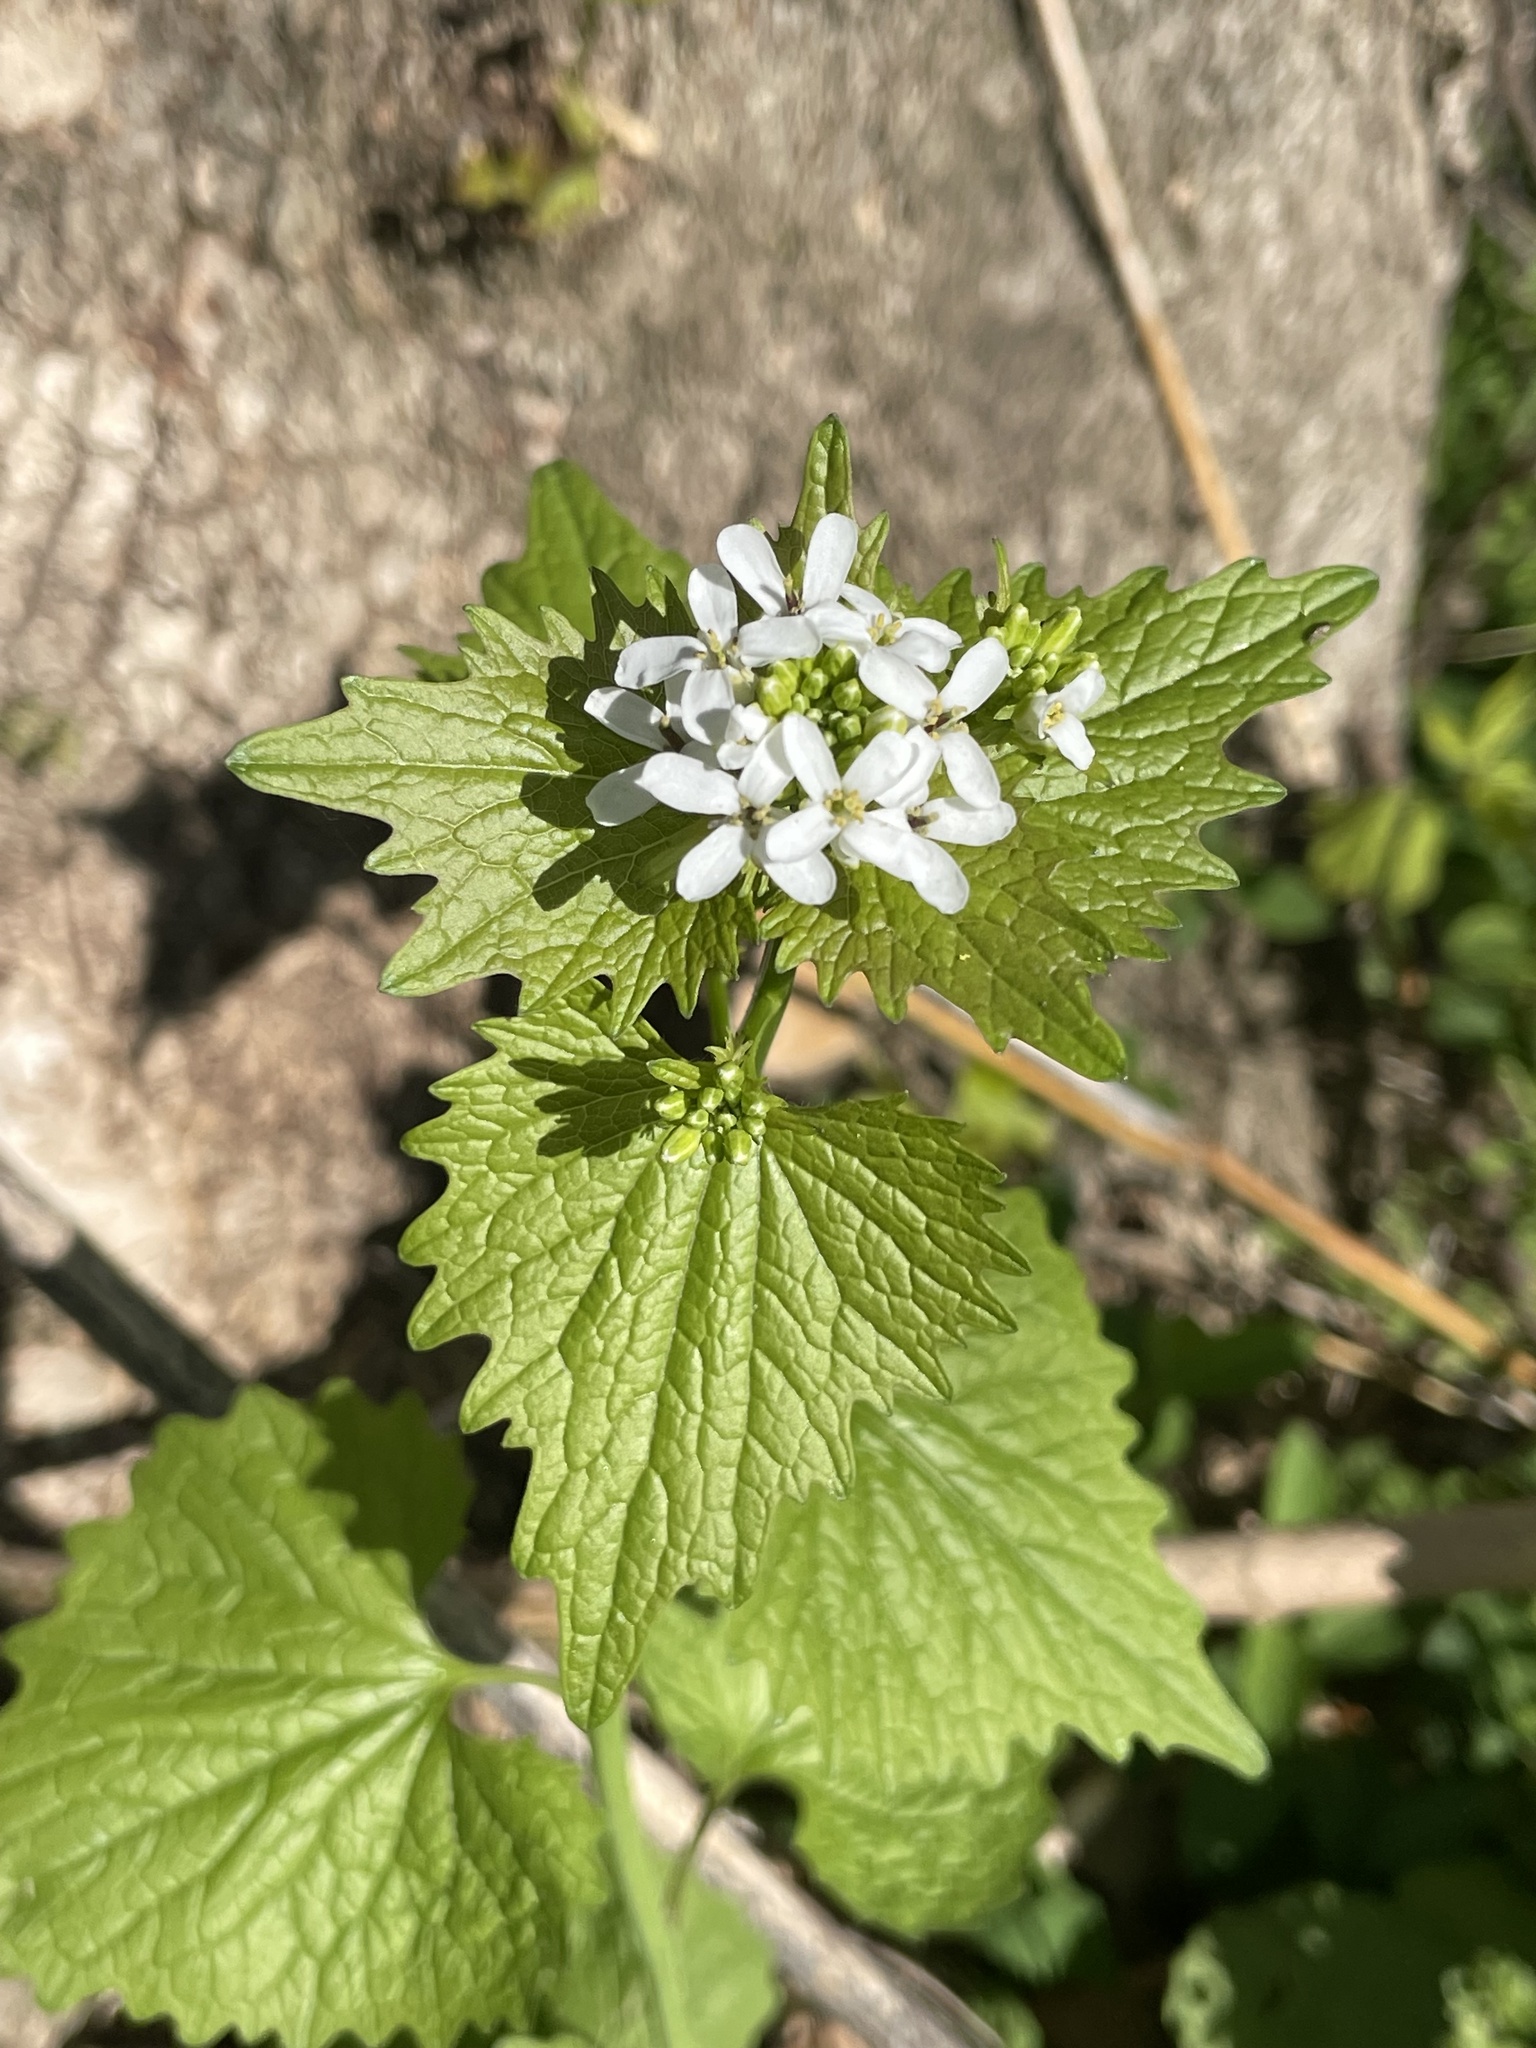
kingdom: Plantae
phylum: Tracheophyta
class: Magnoliopsida
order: Brassicales
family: Brassicaceae
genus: Alliaria
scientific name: Alliaria petiolata
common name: Garlic mustard
